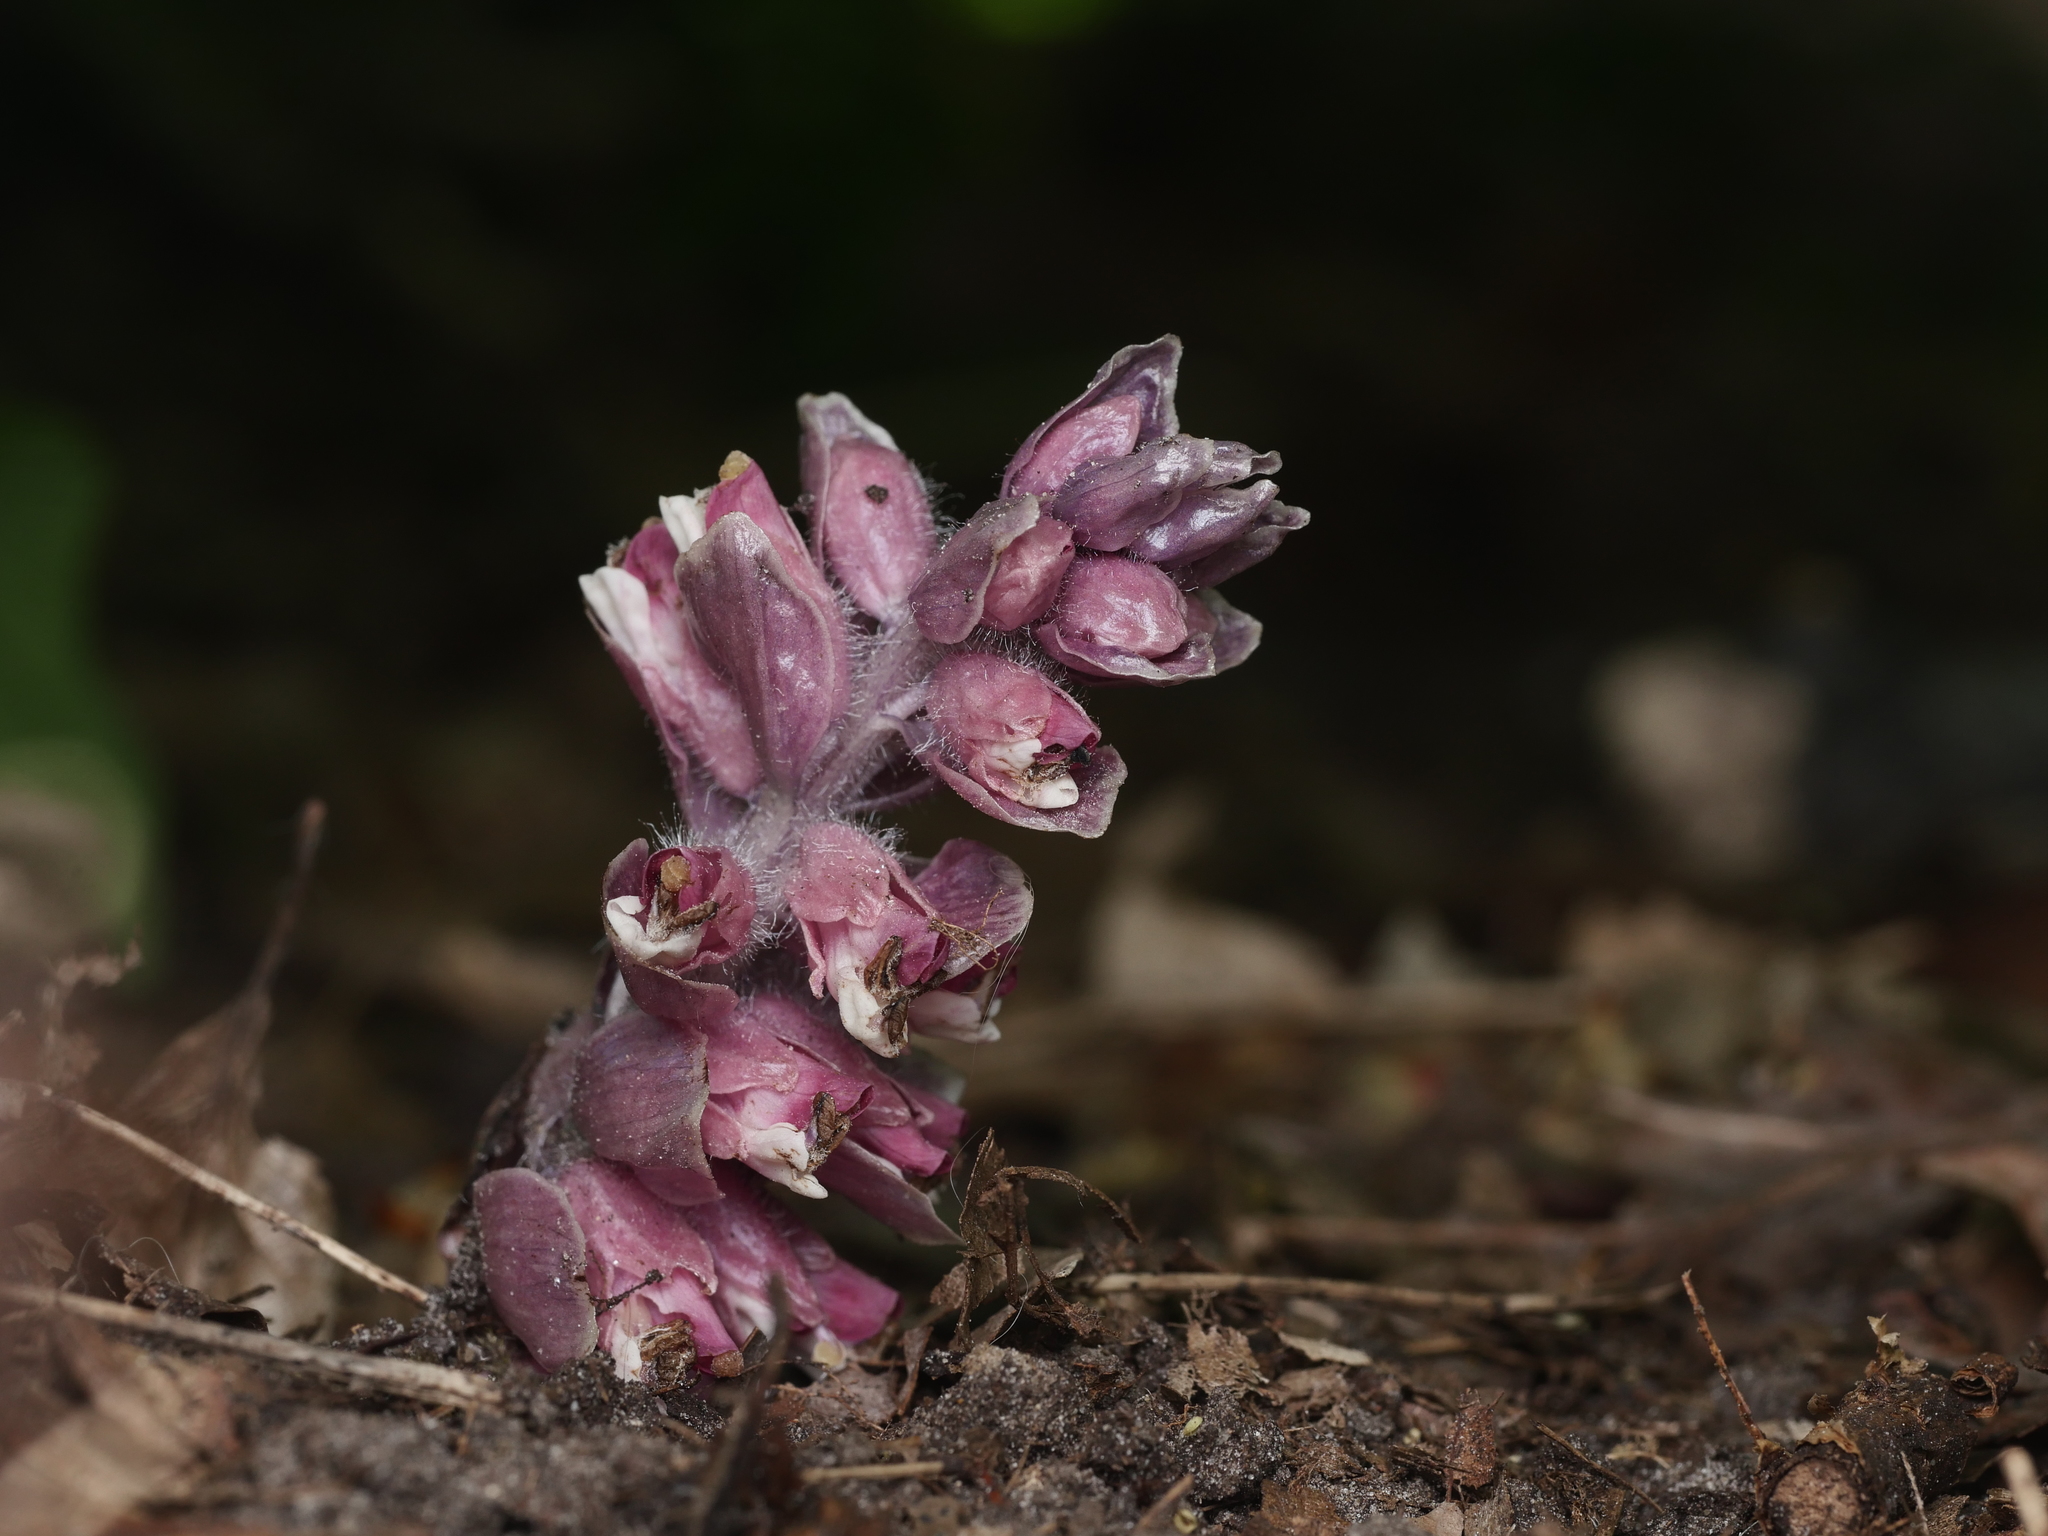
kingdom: Plantae
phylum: Tracheophyta
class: Magnoliopsida
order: Lamiales
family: Orobanchaceae
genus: Lathraea
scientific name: Lathraea squamaria
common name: Toothwort
